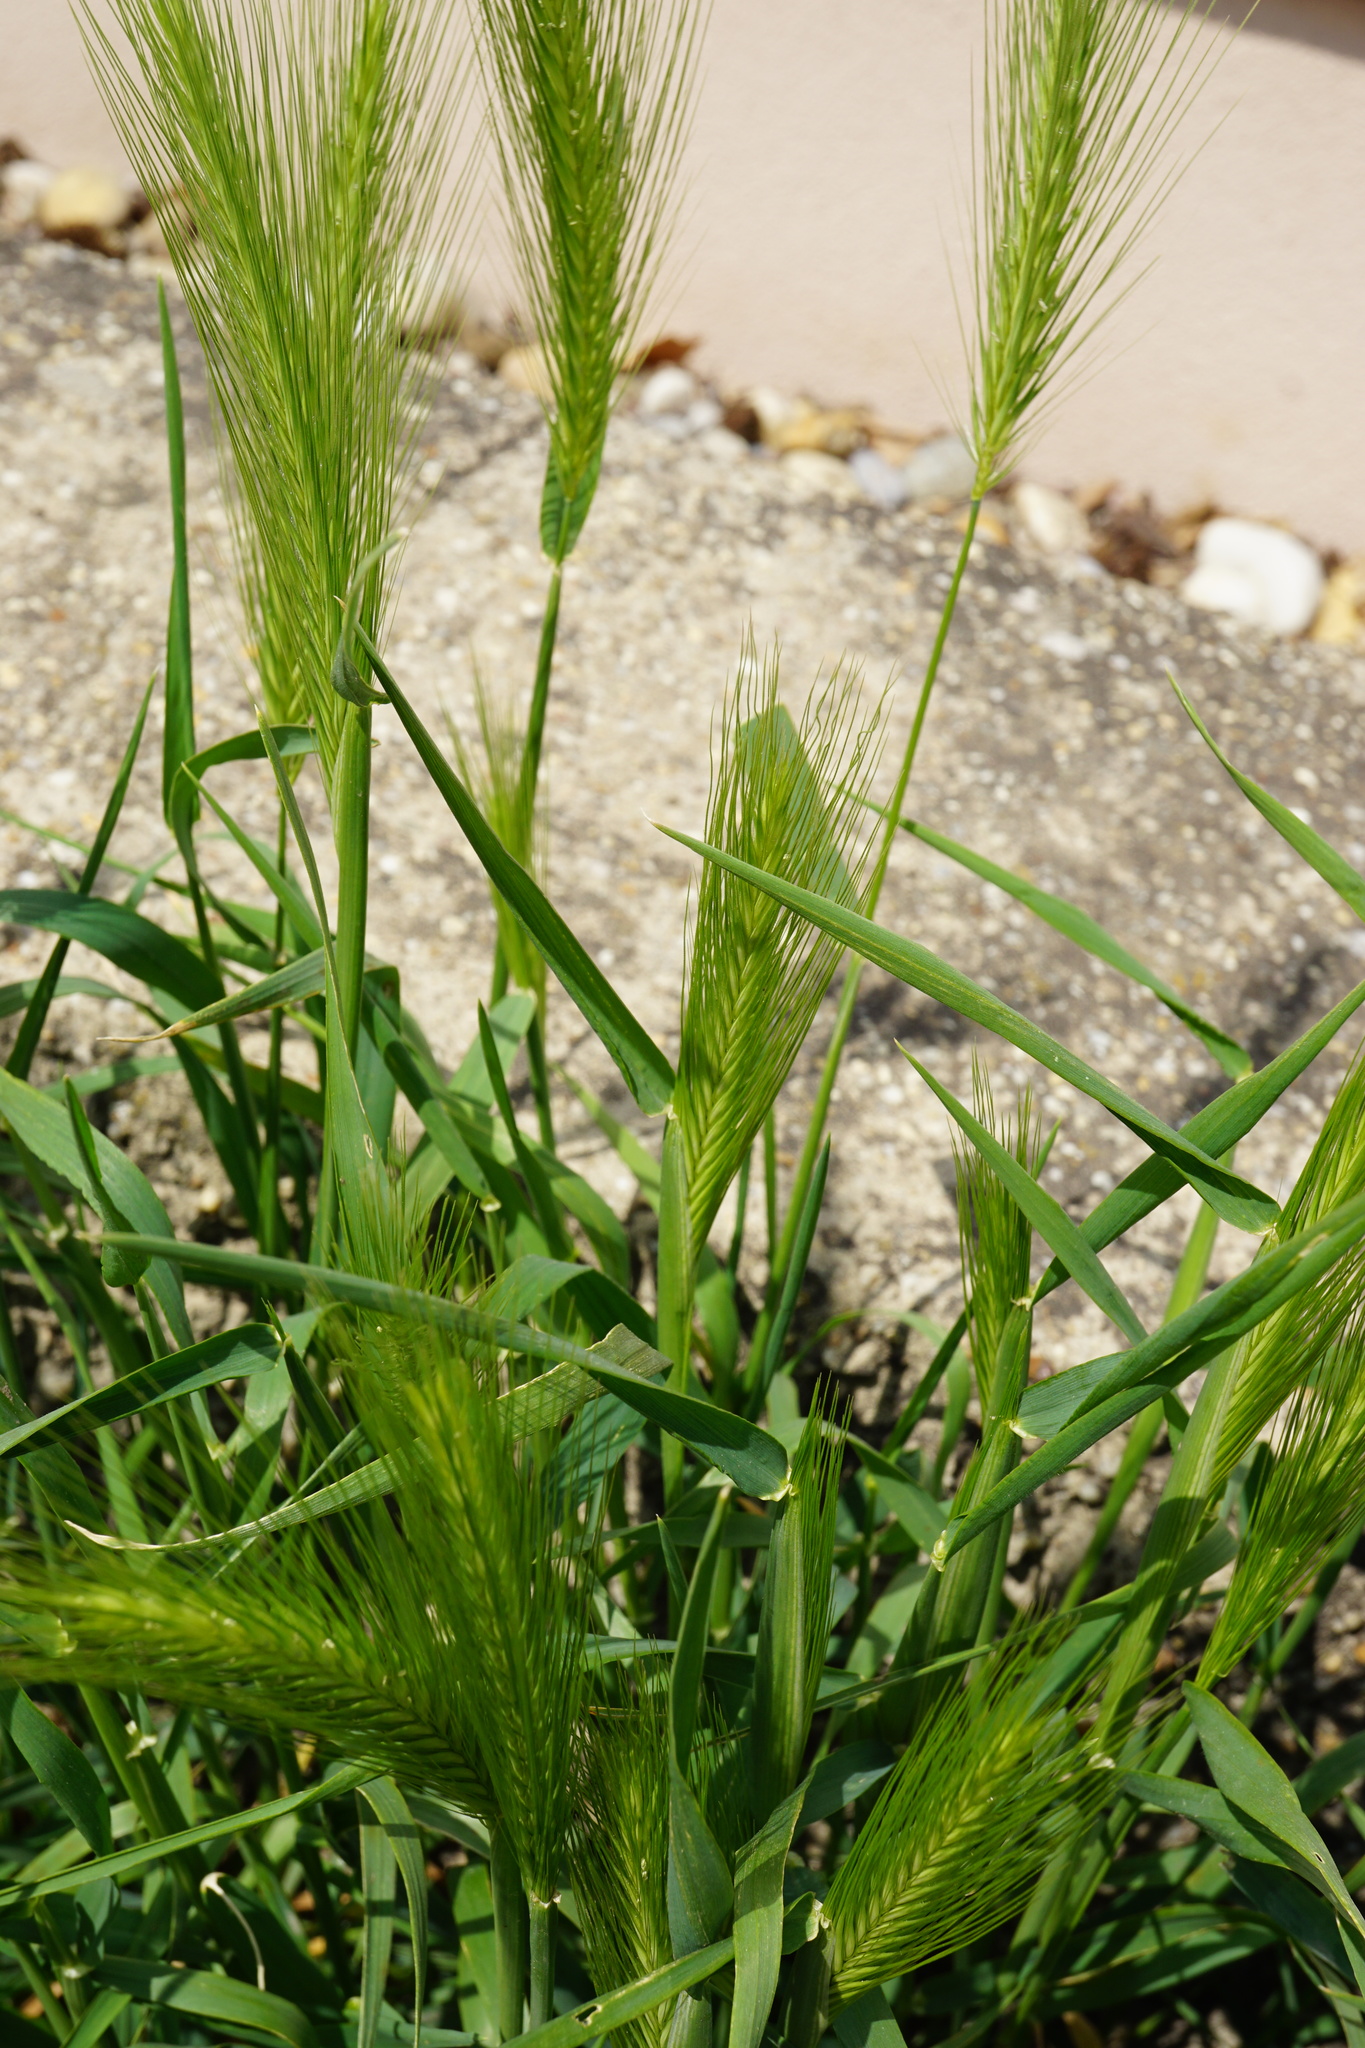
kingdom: Plantae
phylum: Tracheophyta
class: Liliopsida
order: Poales
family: Poaceae
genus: Hordeum
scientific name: Hordeum murinum
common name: Wall barley
